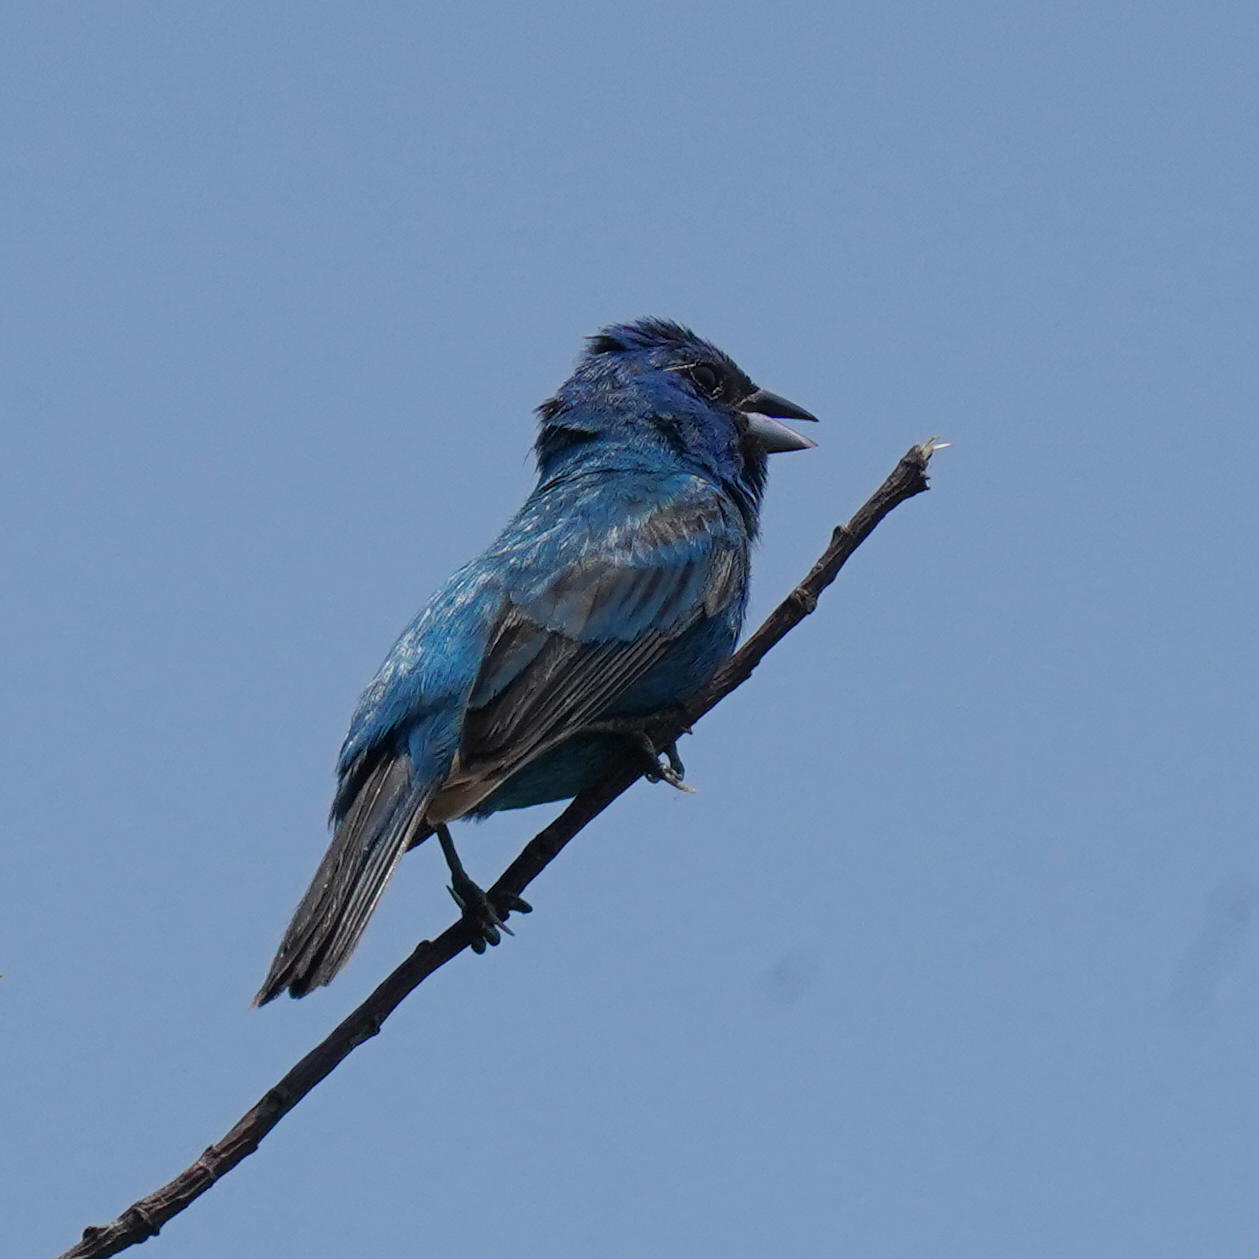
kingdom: Animalia
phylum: Chordata
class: Aves
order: Passeriformes
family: Cardinalidae
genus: Passerina
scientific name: Passerina cyanea
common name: Indigo bunting
